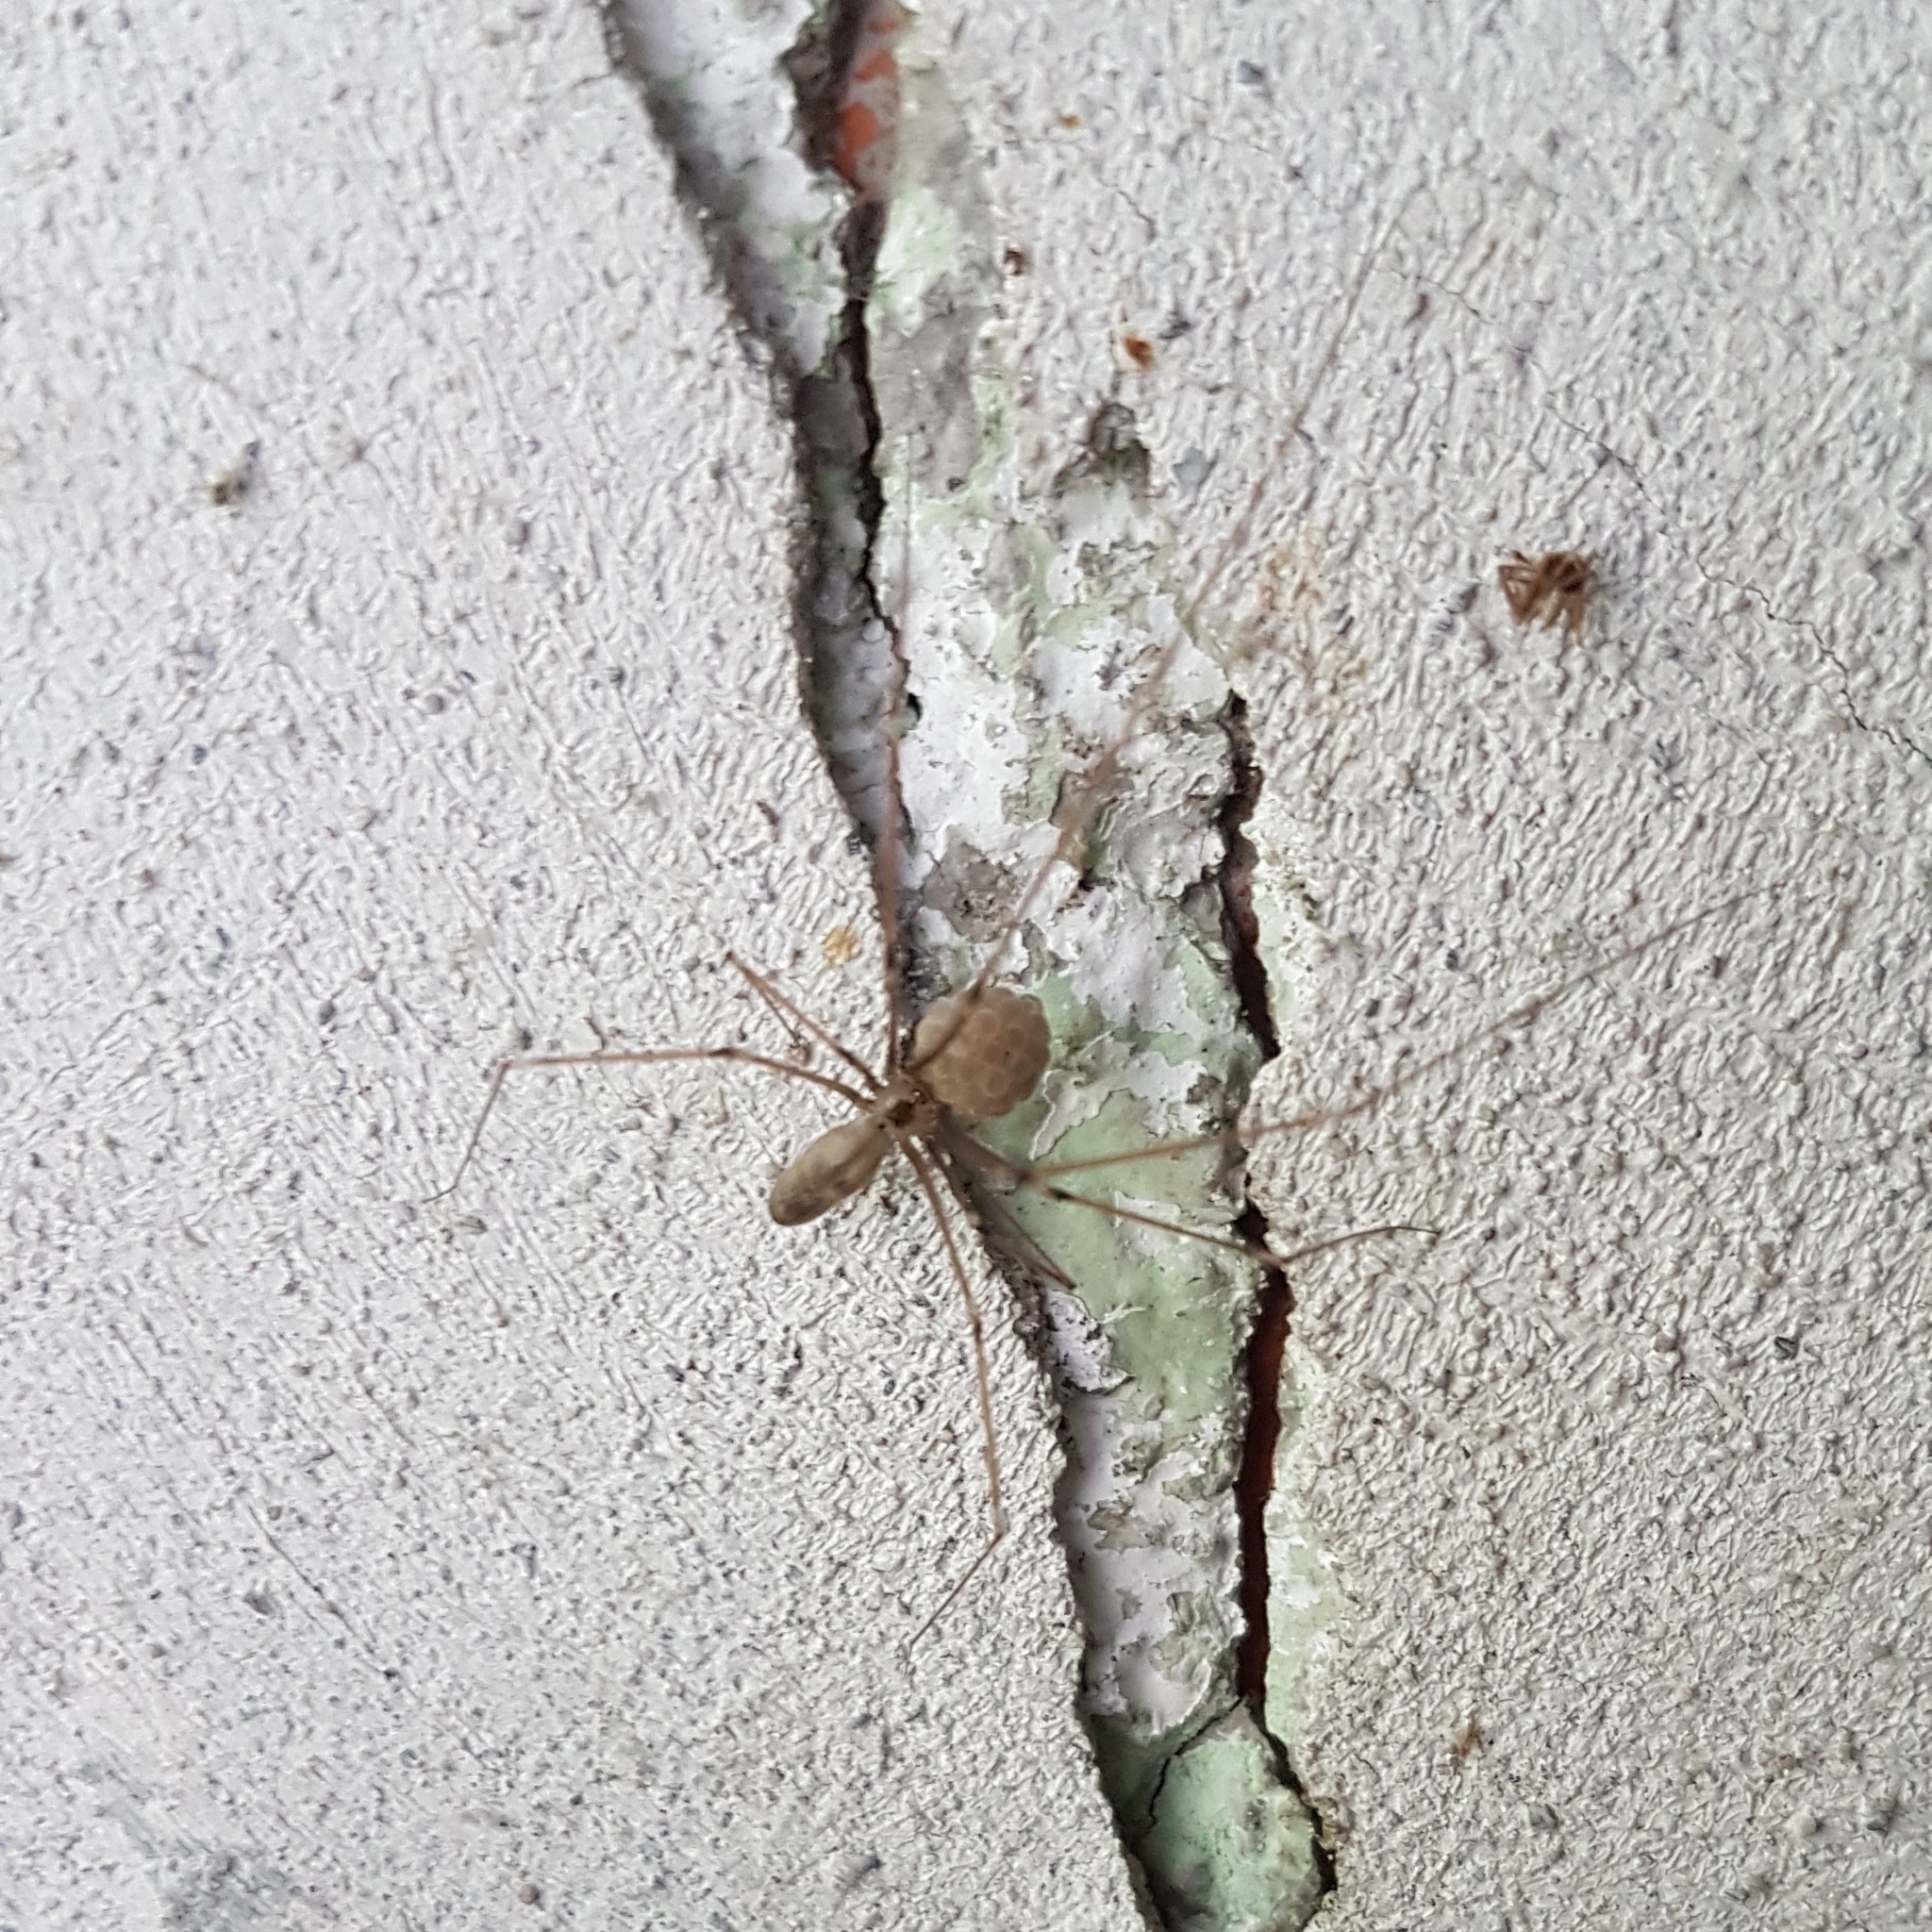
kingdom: Animalia
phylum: Arthropoda
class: Arachnida
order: Araneae
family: Pholcidae
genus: Pholcus
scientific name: Pholcus phalangioides
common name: Longbodied cellar spider
